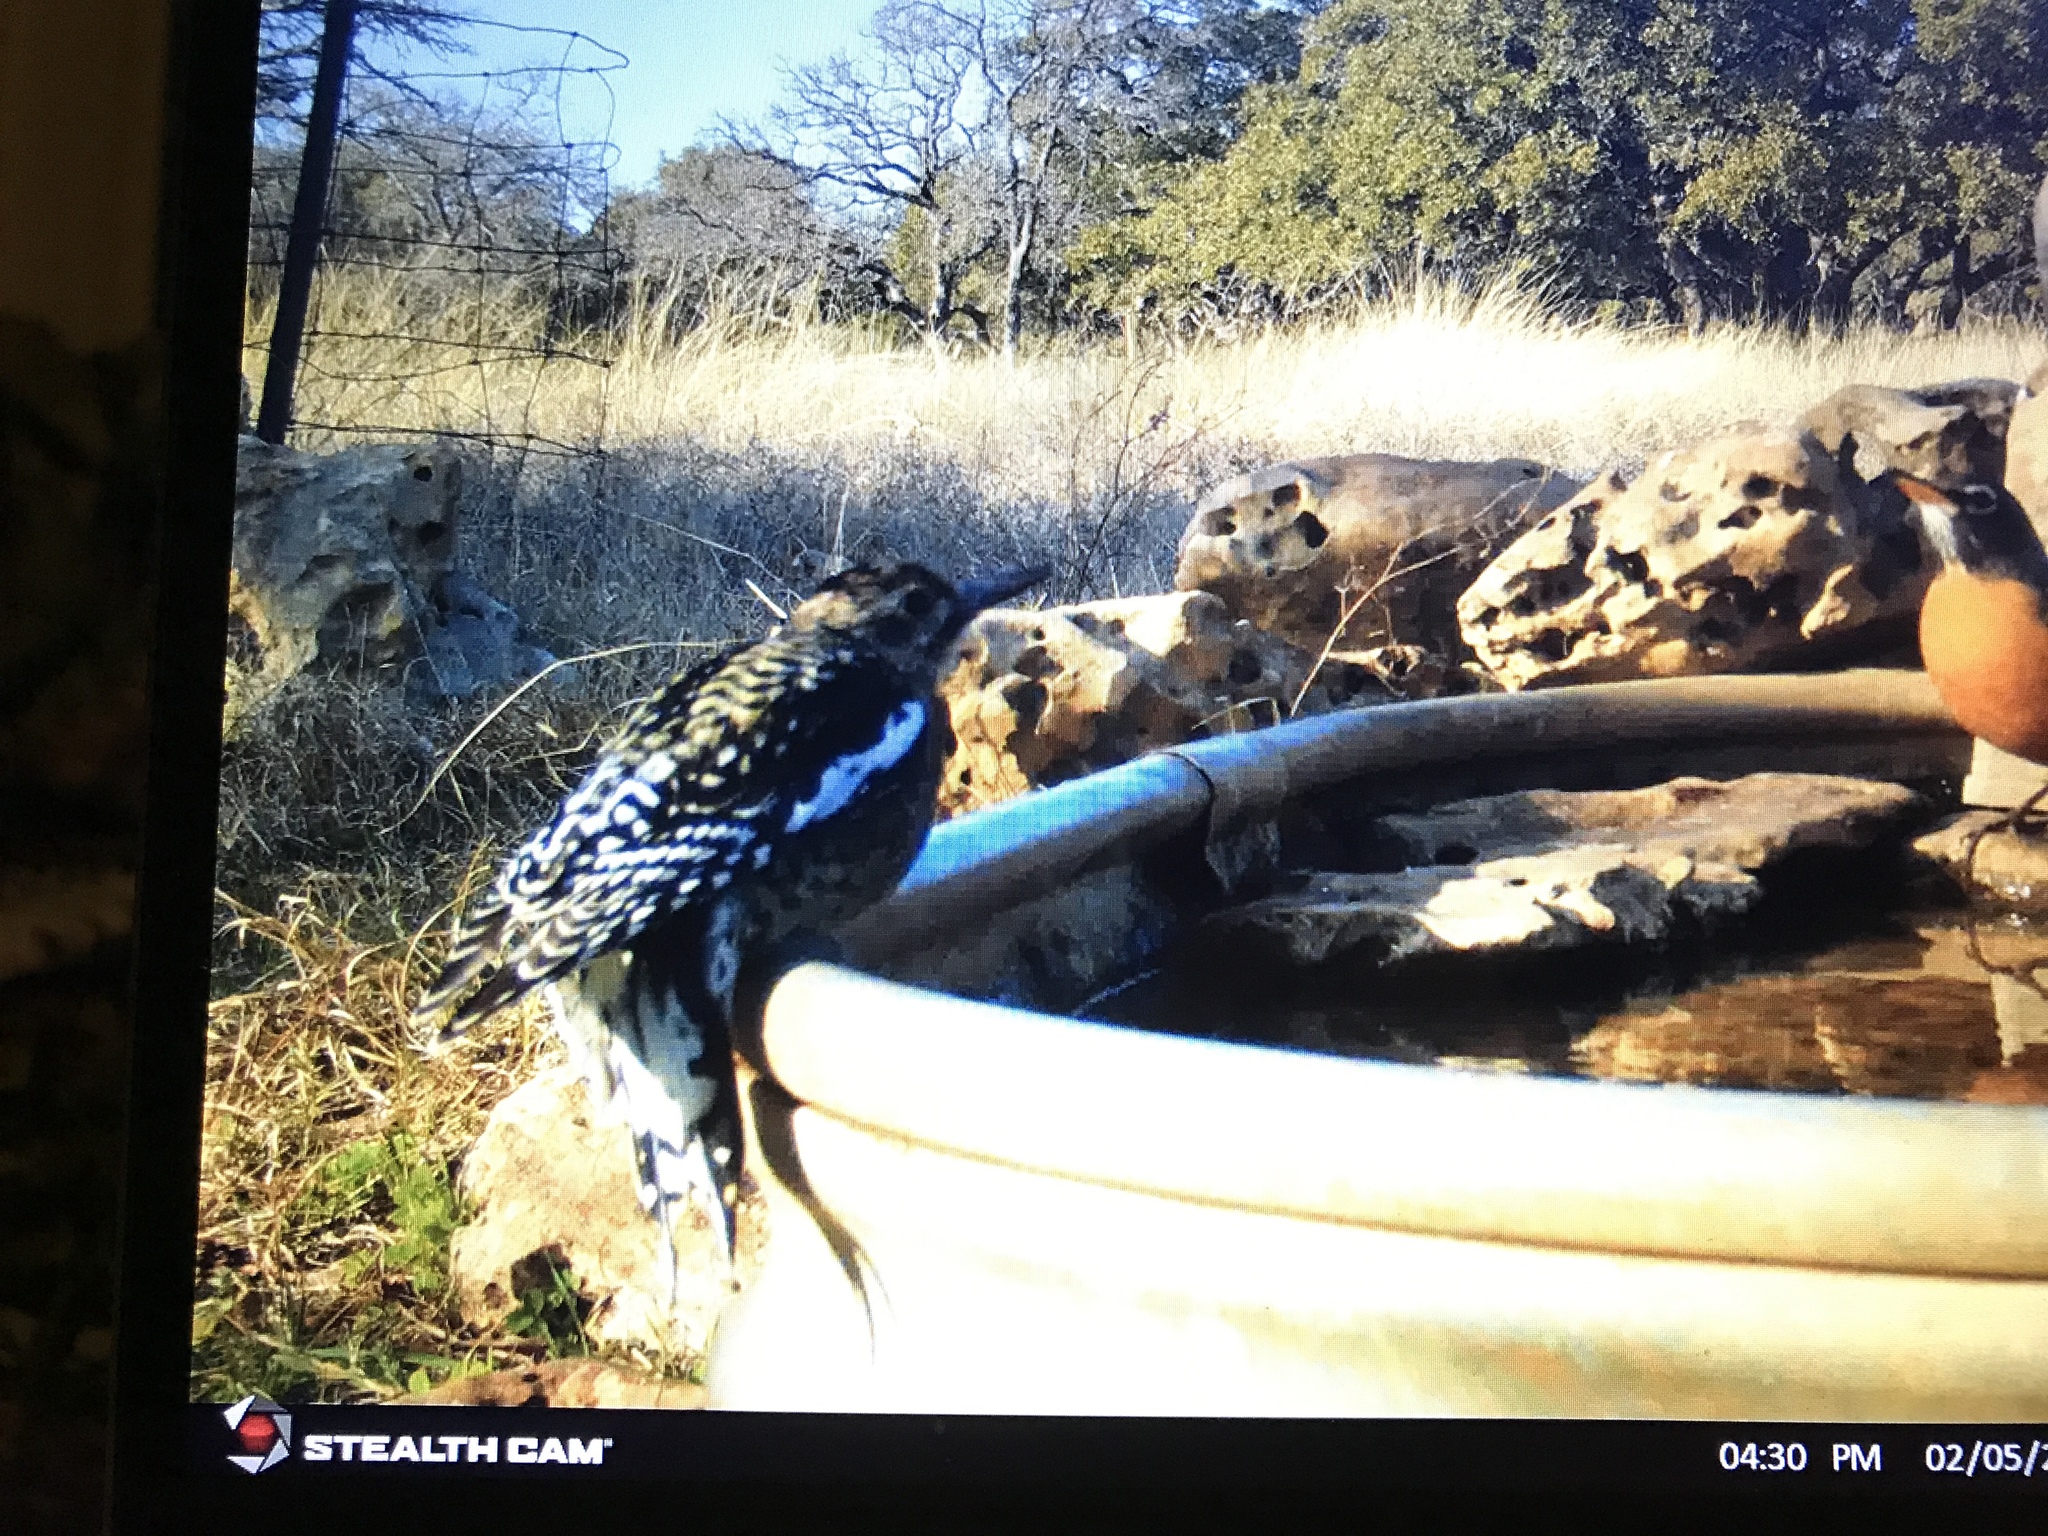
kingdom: Animalia
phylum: Chordata
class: Aves
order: Piciformes
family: Picidae
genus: Sphyrapicus
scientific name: Sphyrapicus varius
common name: Yellow-bellied sapsucker
